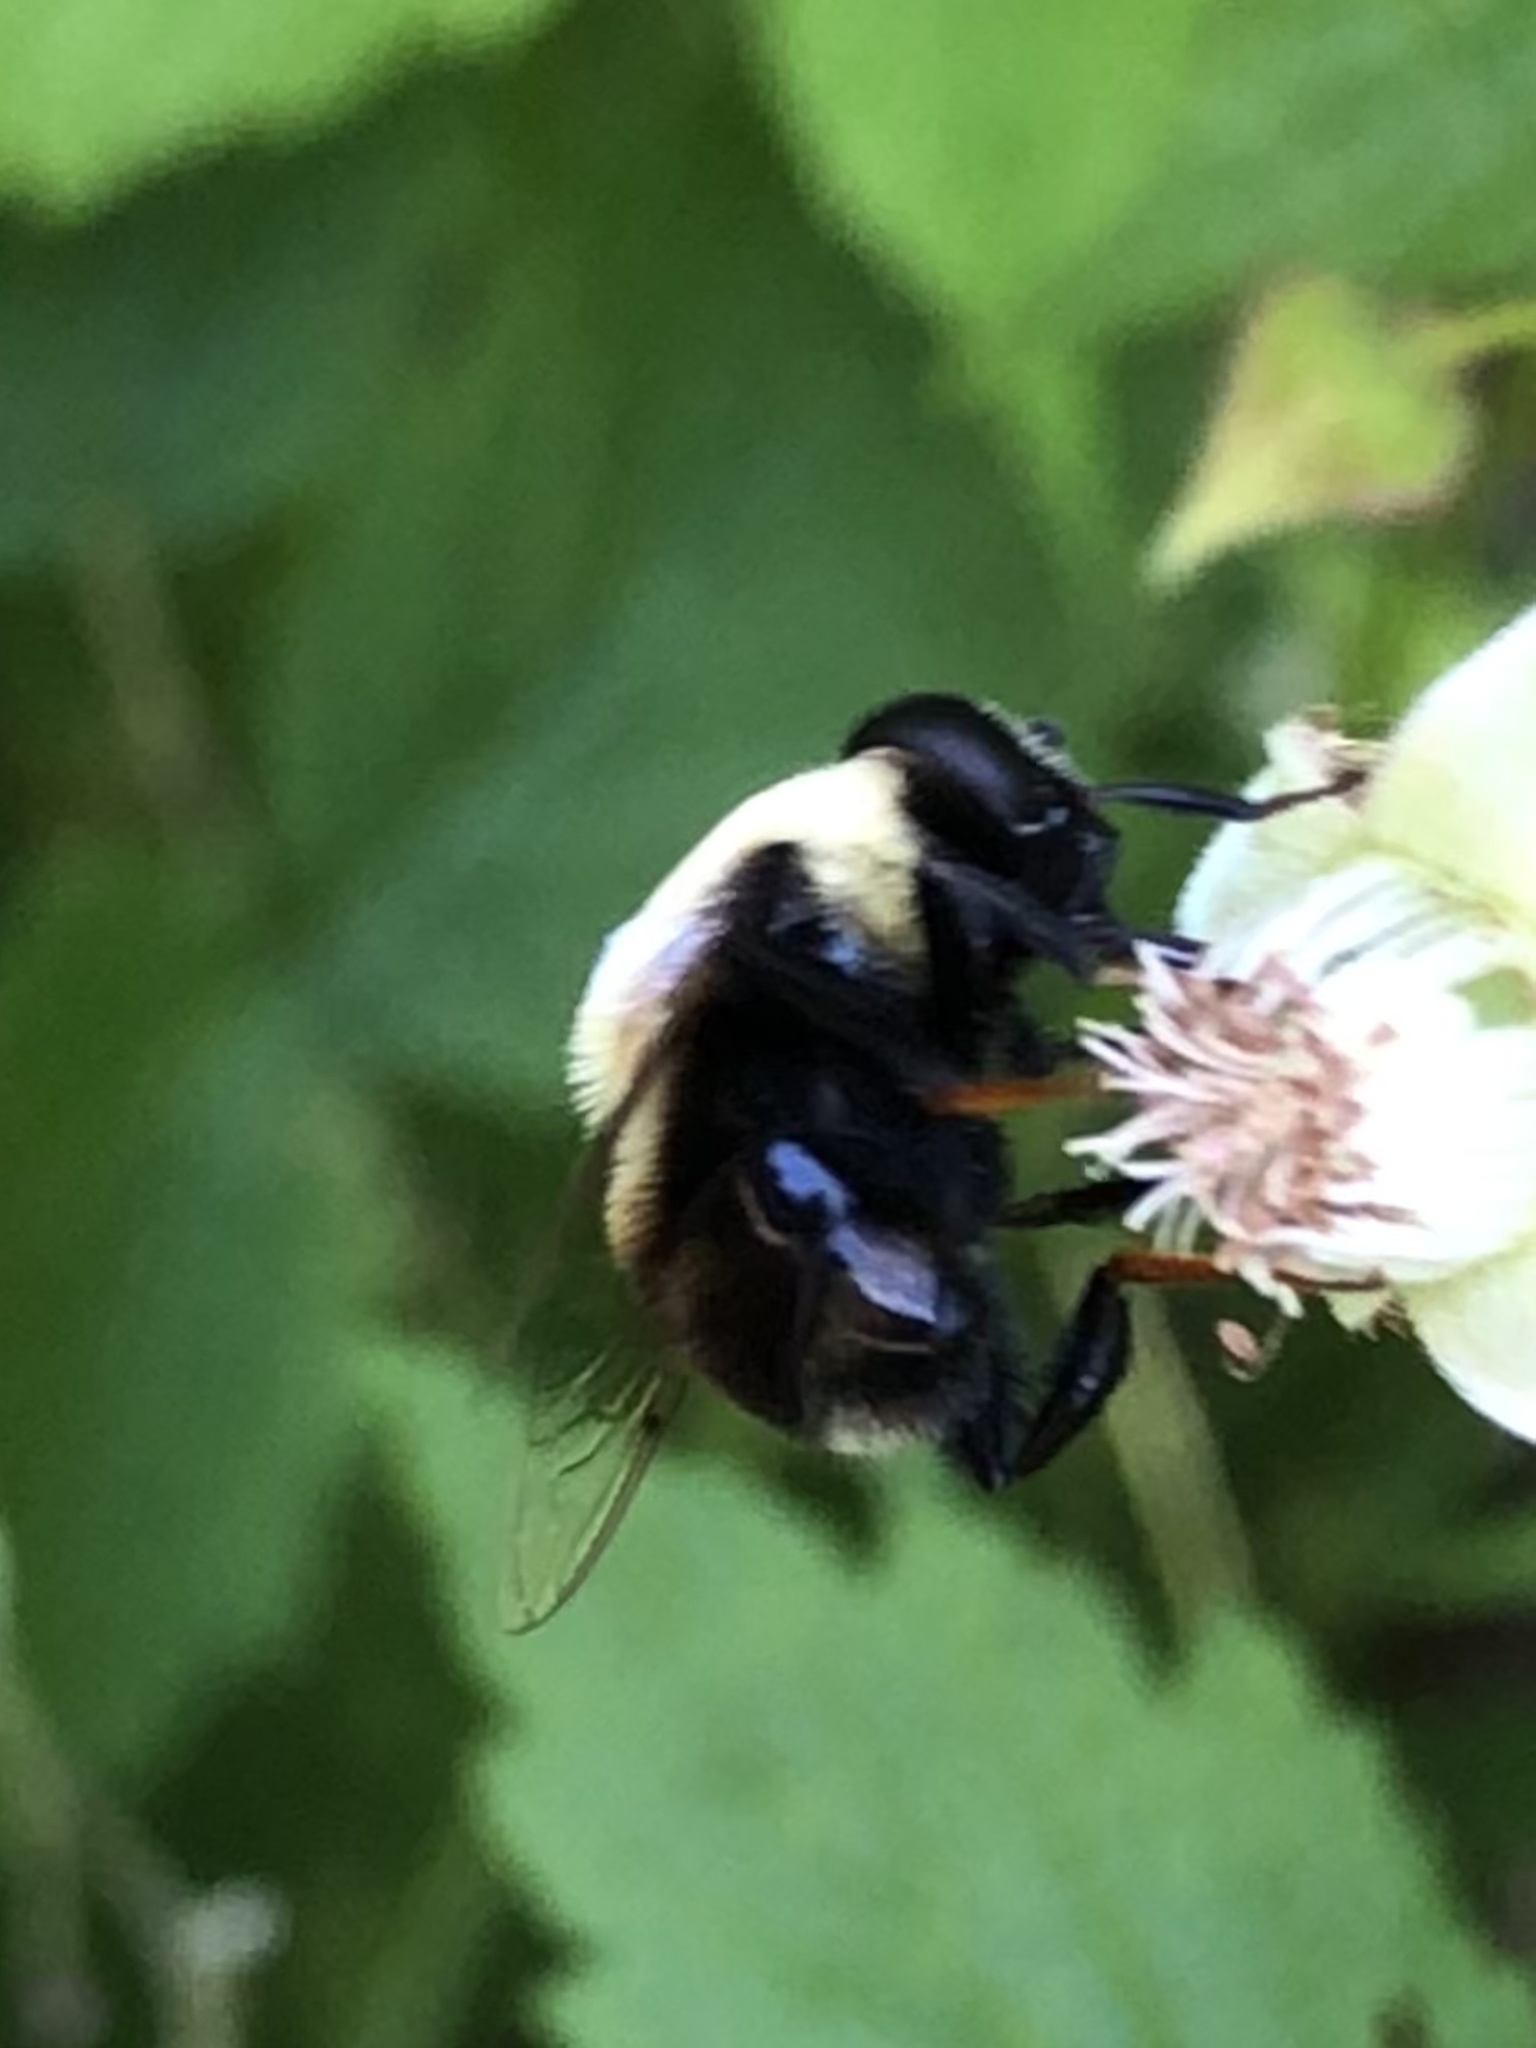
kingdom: Animalia
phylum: Arthropoda
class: Insecta
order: Diptera
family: Syrphidae
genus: Eristalis
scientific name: Eristalis flavipes
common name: Orange-legged drone fly
